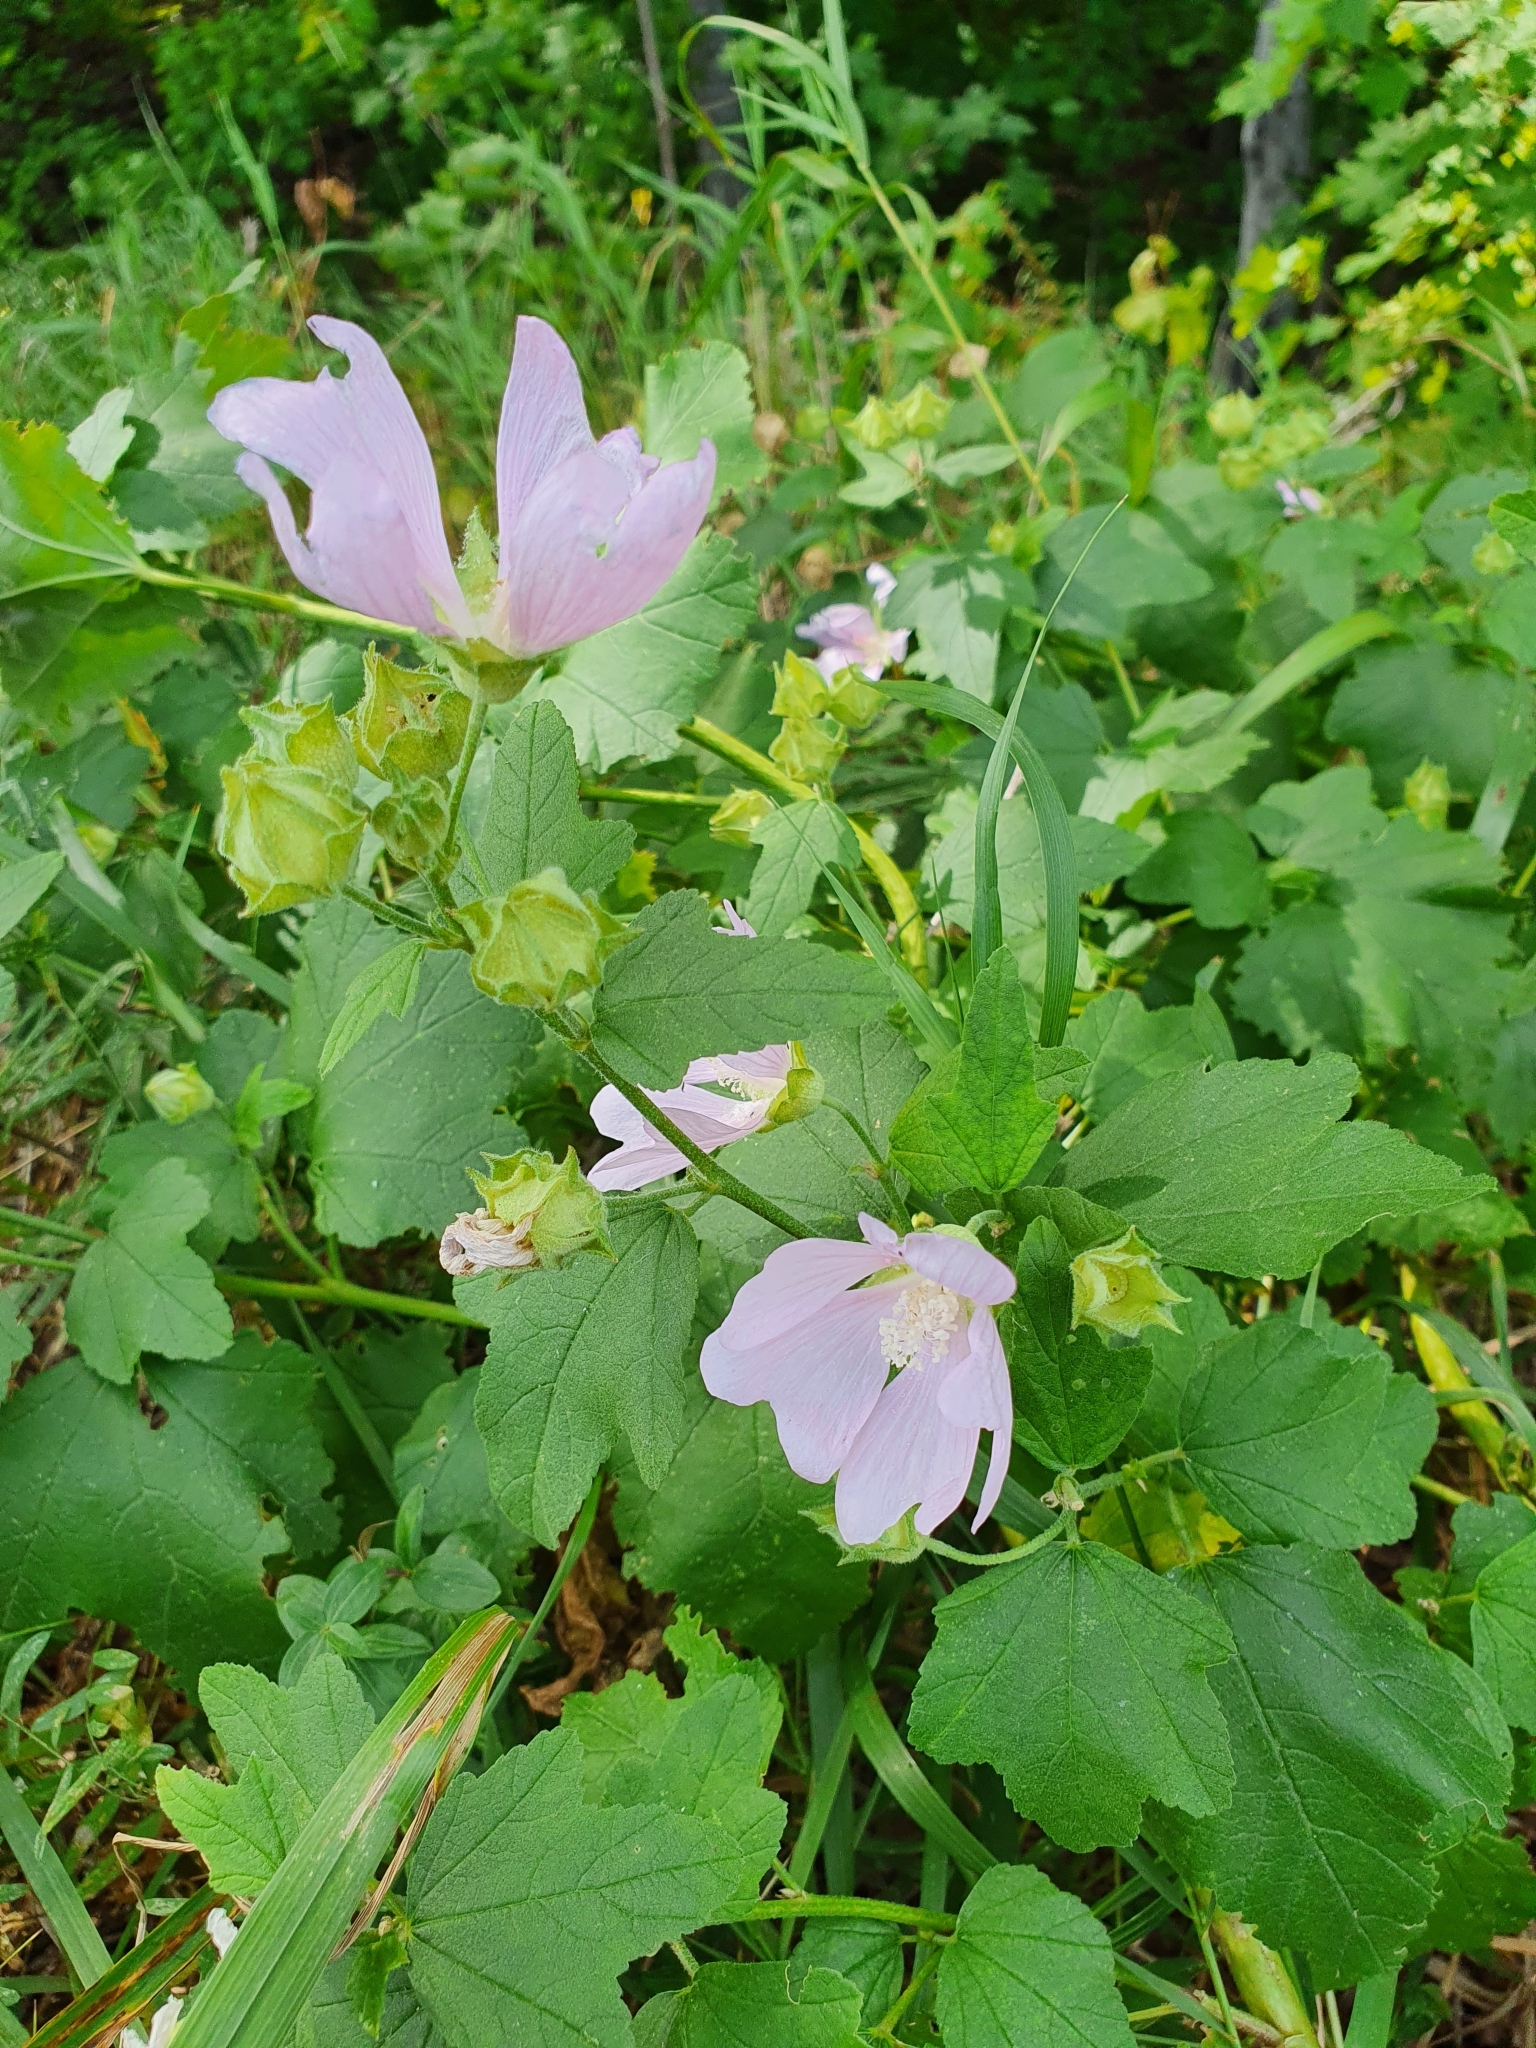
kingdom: Plantae
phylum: Tracheophyta
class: Magnoliopsida
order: Malvales
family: Malvaceae
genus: Malva
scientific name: Malva thuringiaca
